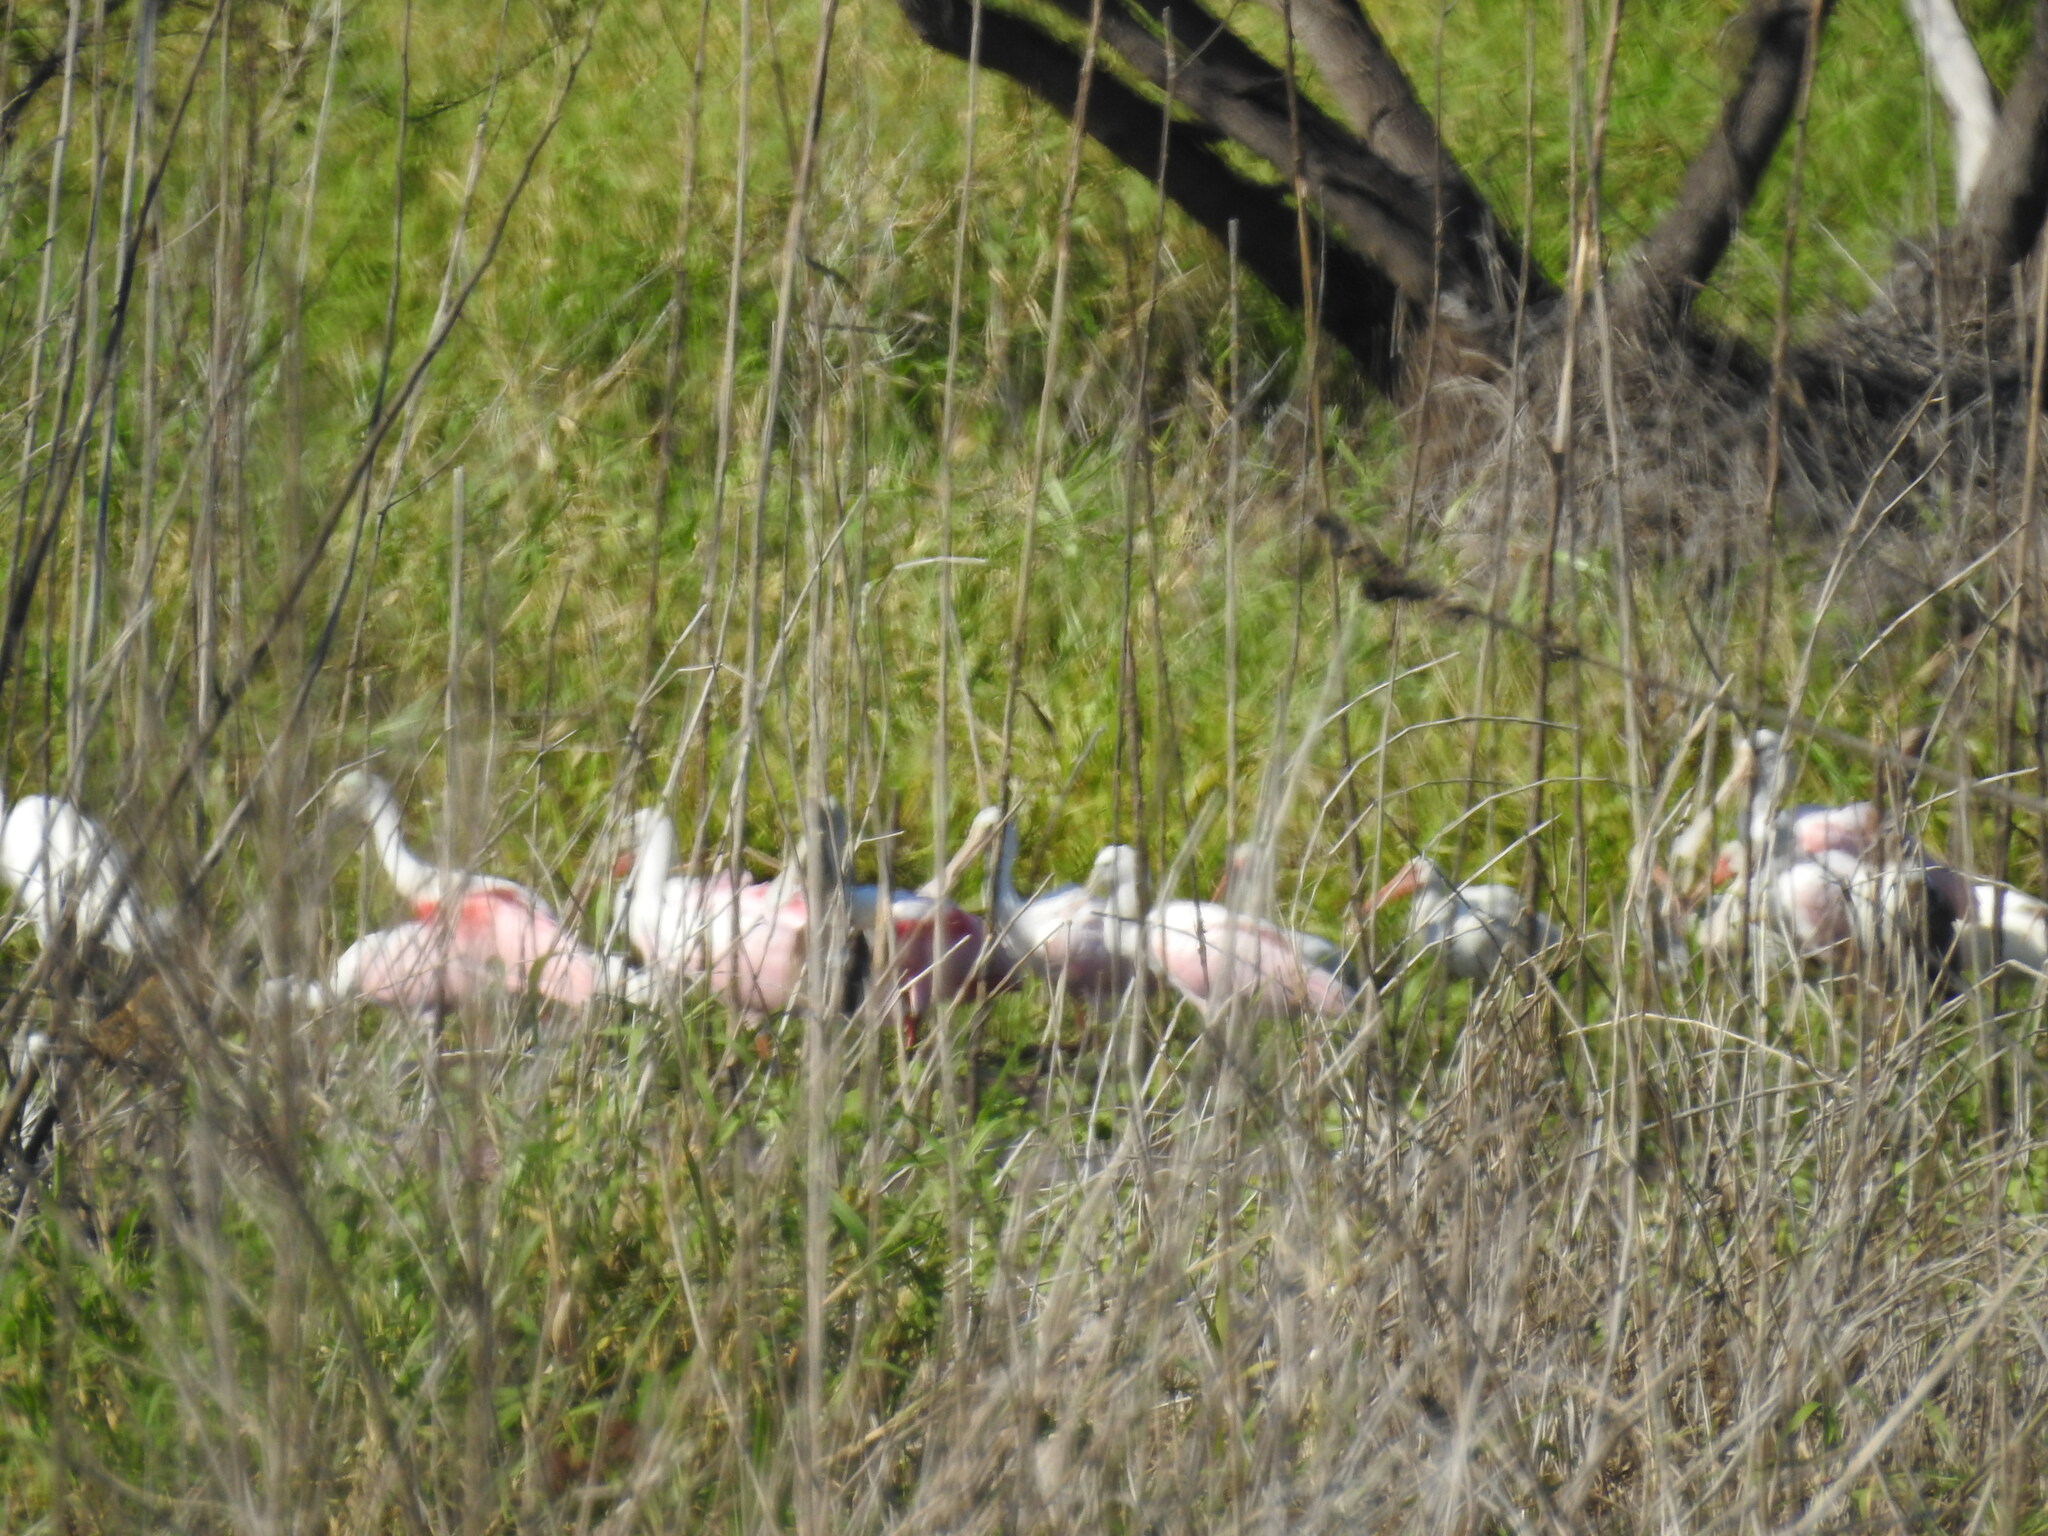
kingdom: Animalia
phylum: Chordata
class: Aves
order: Pelecaniformes
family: Threskiornithidae
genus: Platalea
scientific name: Platalea ajaja
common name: Roseate spoonbill
